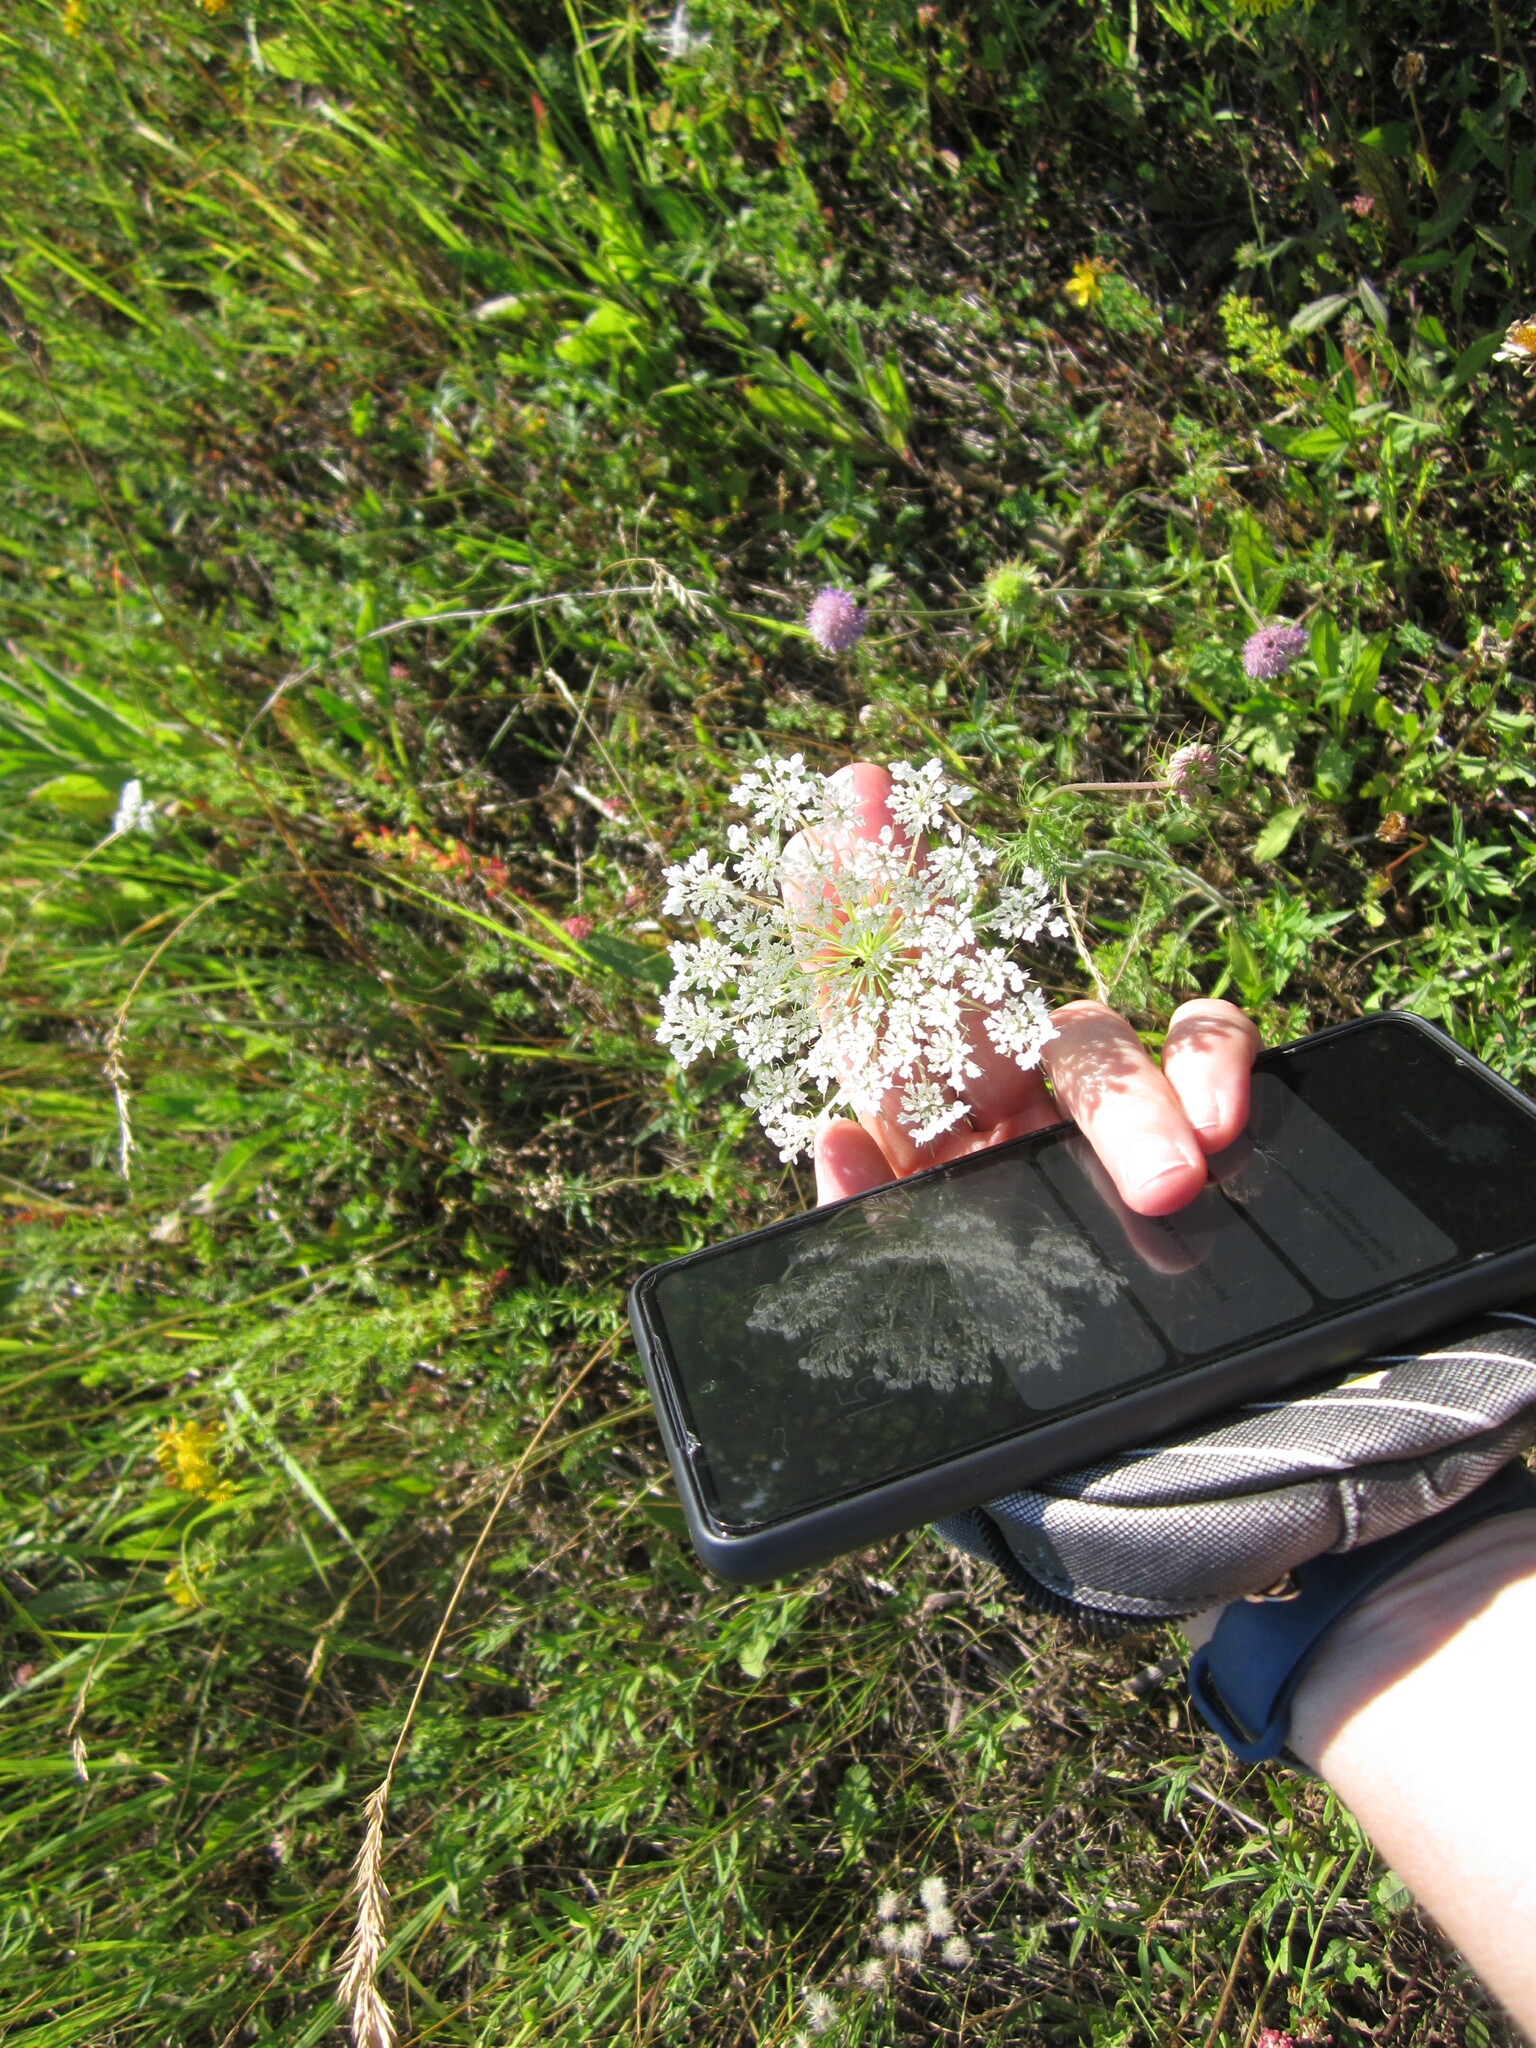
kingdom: Plantae
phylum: Tracheophyta
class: Magnoliopsida
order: Apiales
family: Apiaceae
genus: Daucus
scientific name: Daucus carota
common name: Wild carrot
